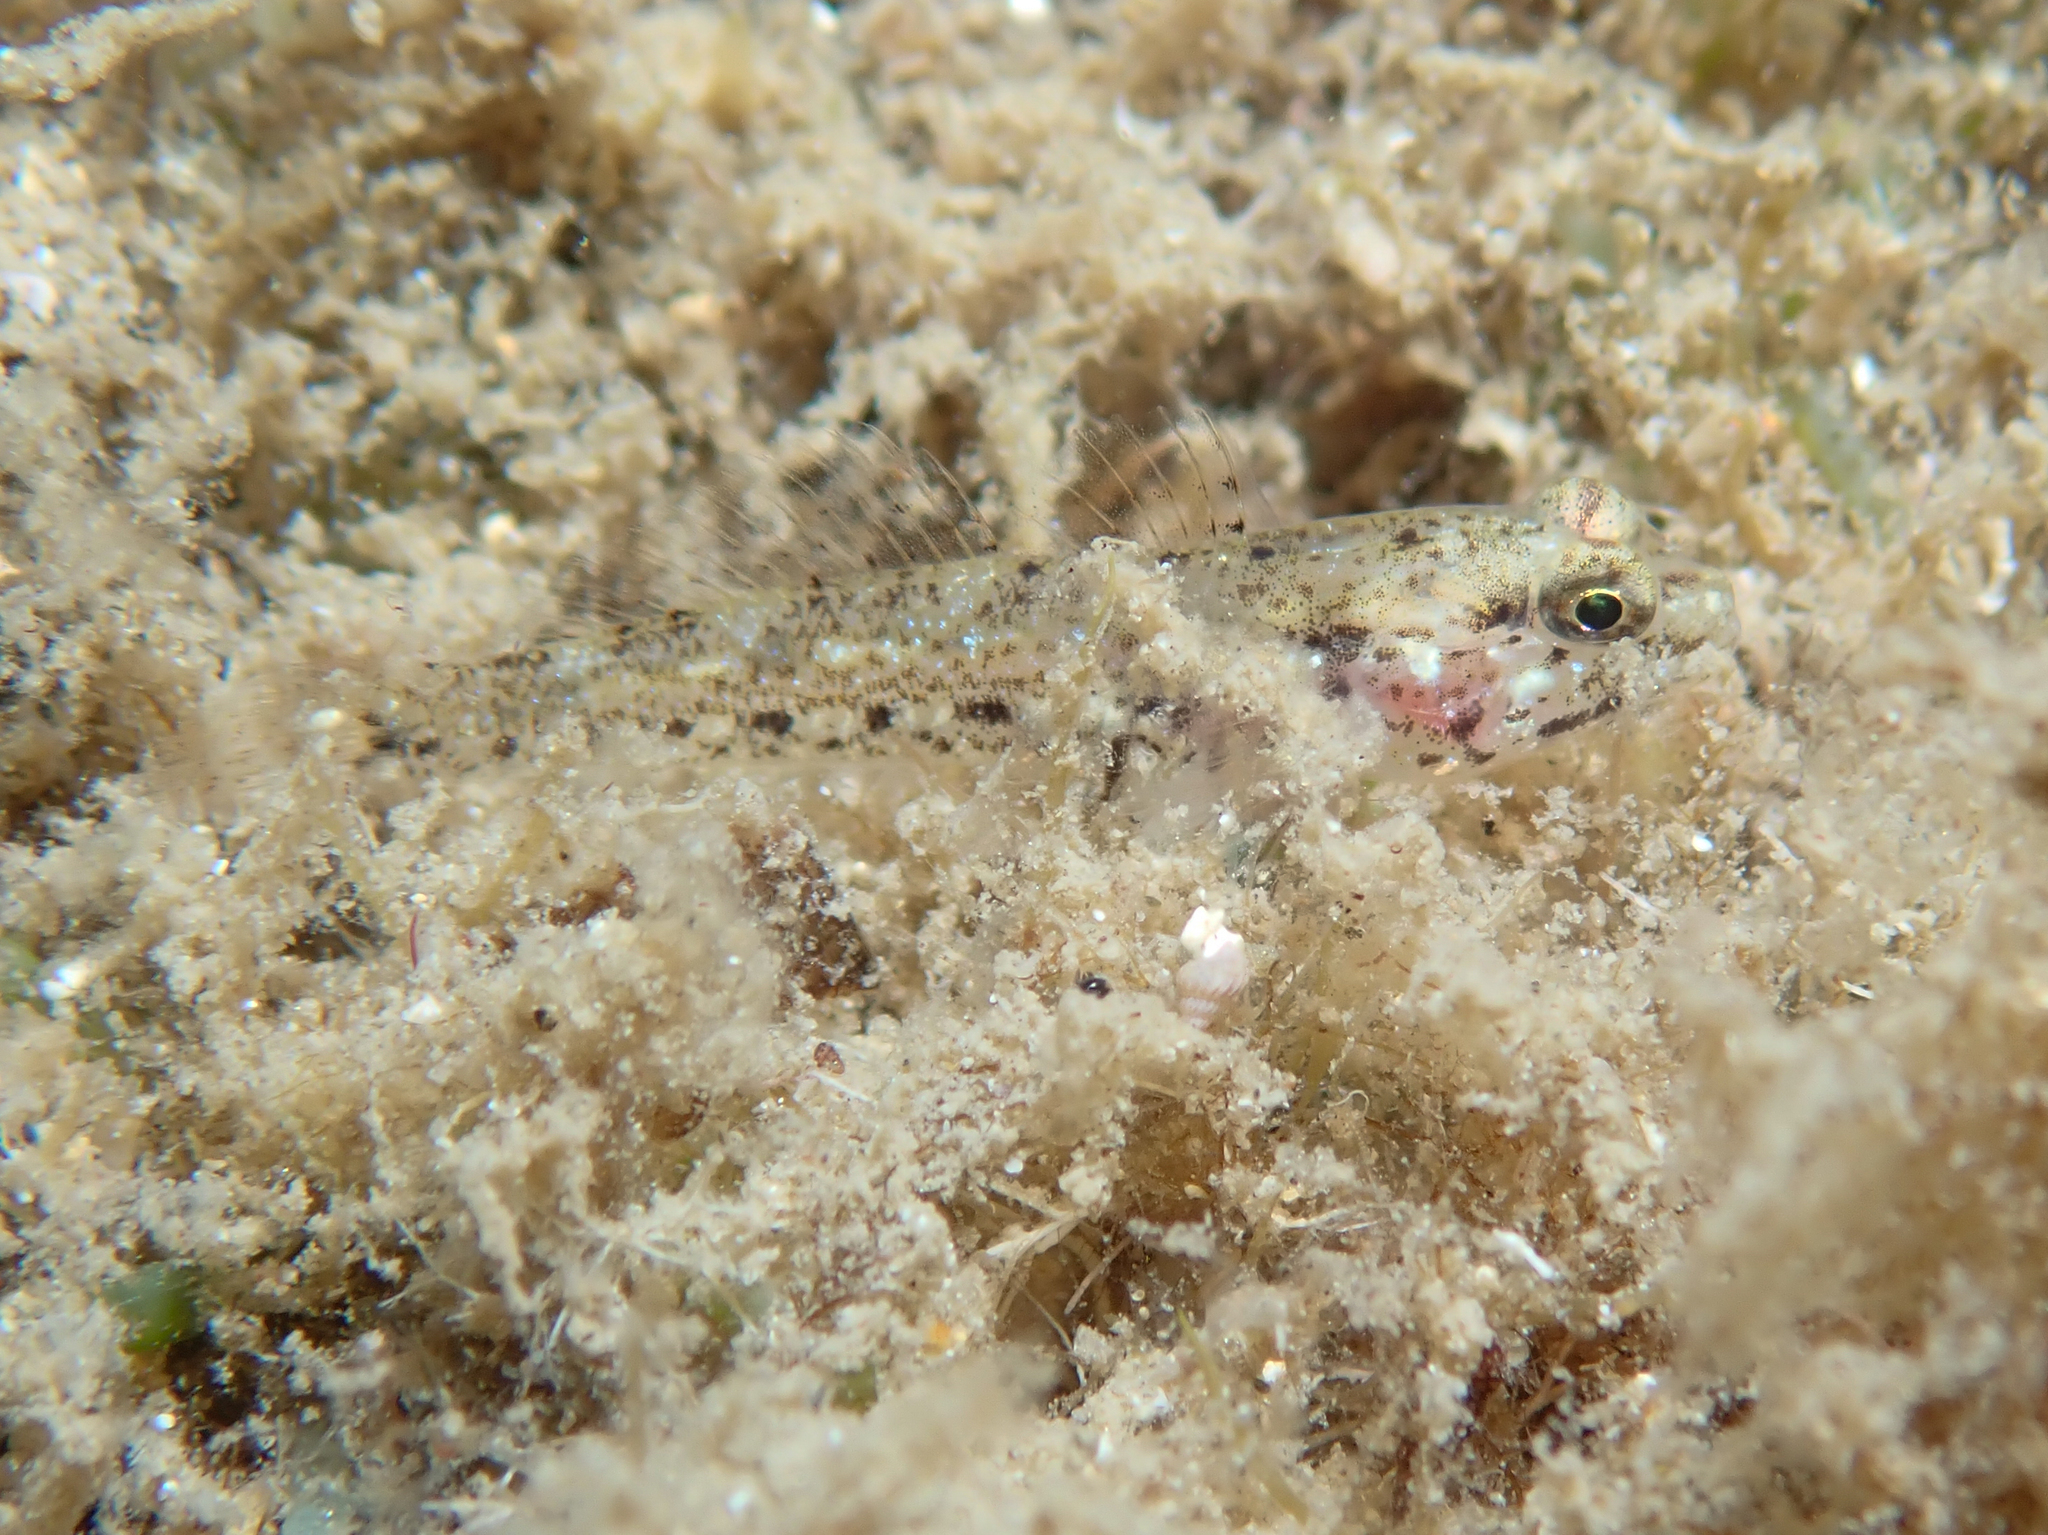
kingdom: Animalia
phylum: Chordata
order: Perciformes
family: Gobiidae
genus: Gobius
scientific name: Gobius incognitus
